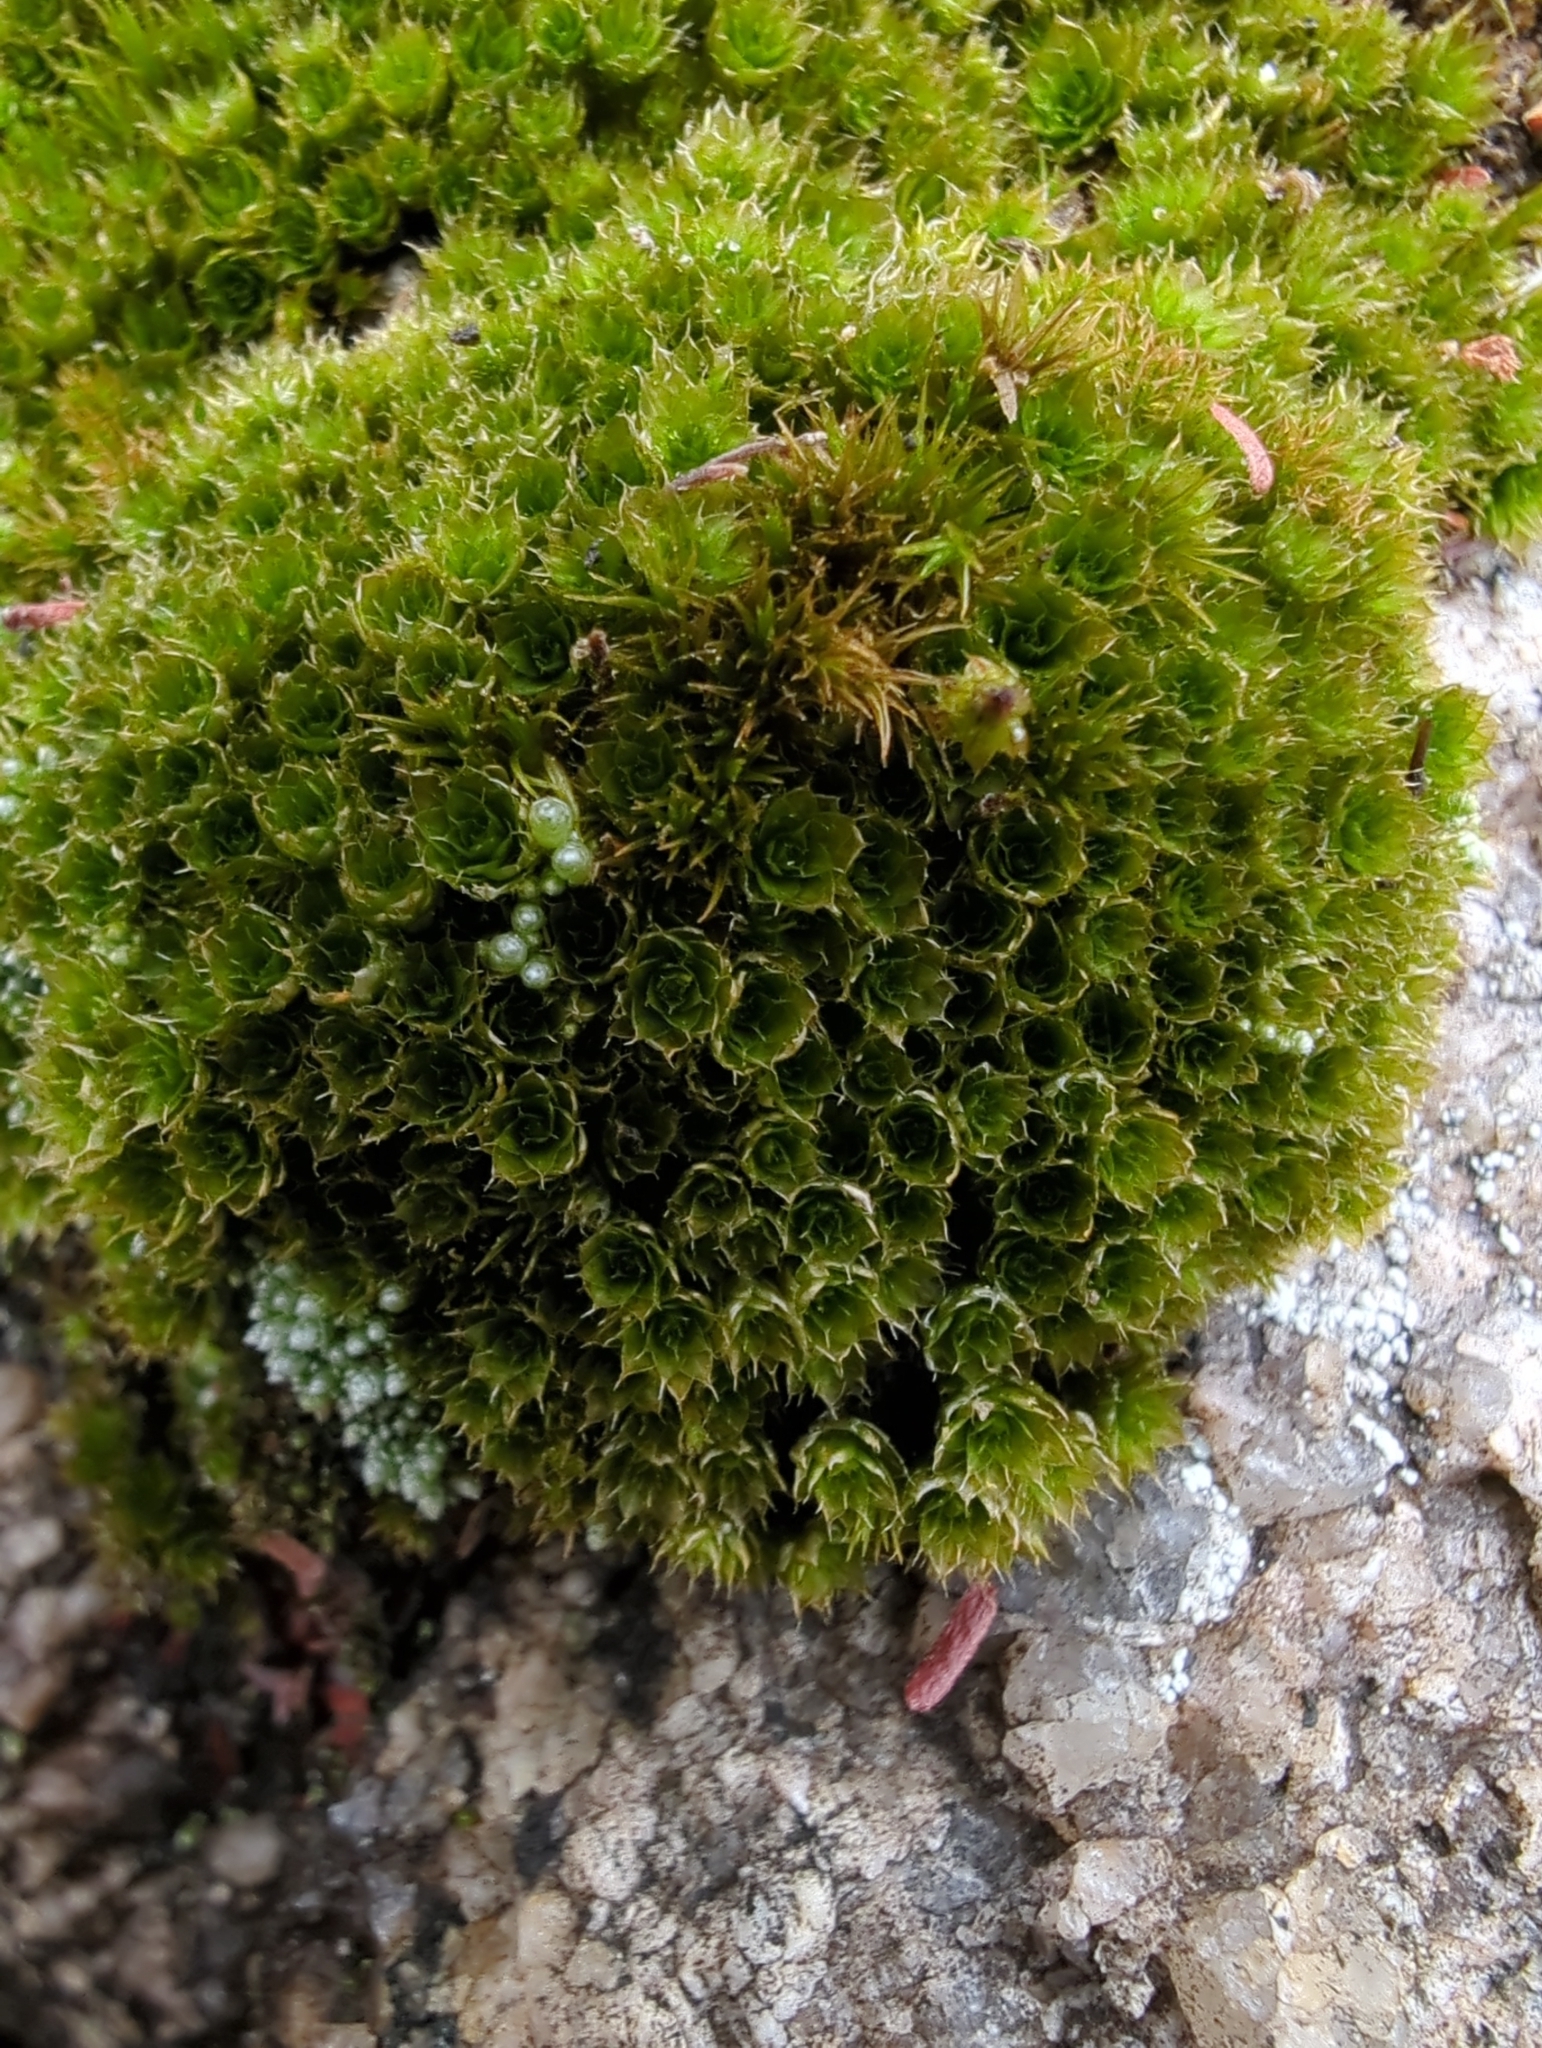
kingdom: Plantae
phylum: Bryophyta
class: Bryopsida
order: Bryales
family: Bryaceae
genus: Rosulabryum
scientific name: Rosulabryum billardierei
